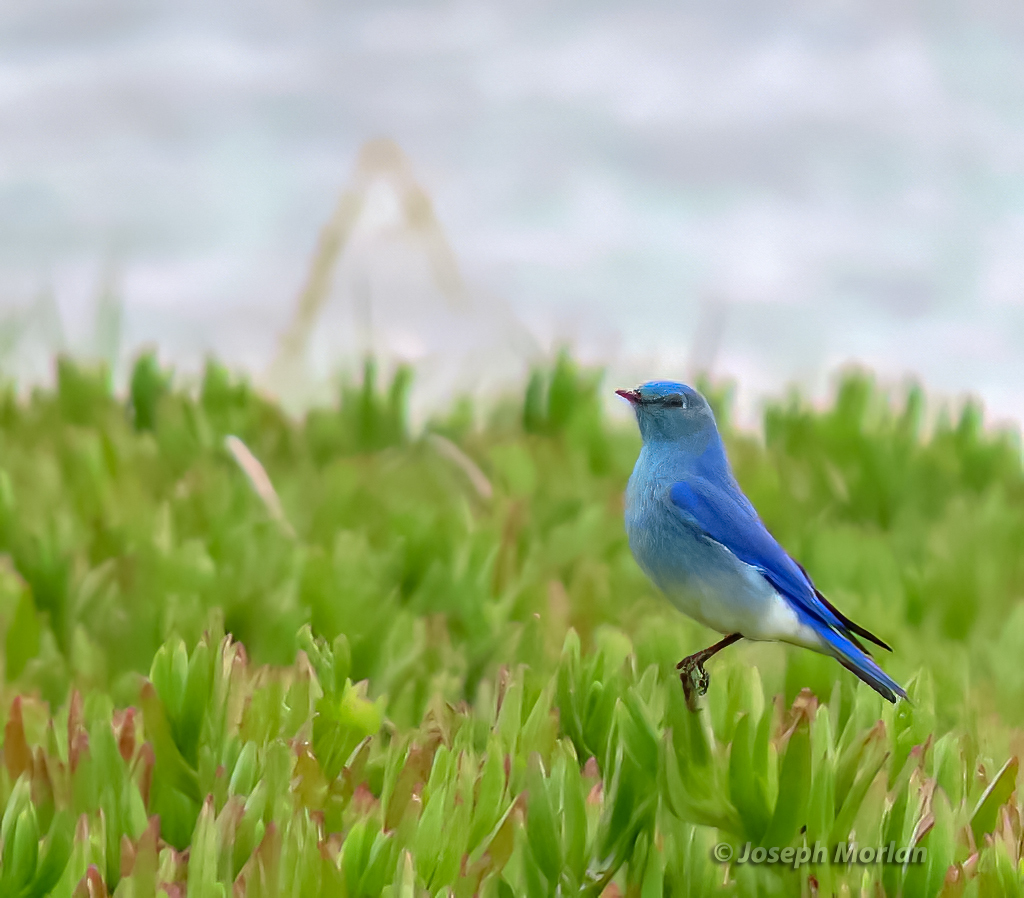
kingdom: Animalia
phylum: Chordata
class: Aves
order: Passeriformes
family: Turdidae
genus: Sialia
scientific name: Sialia currucoides
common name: Mountain bluebird
